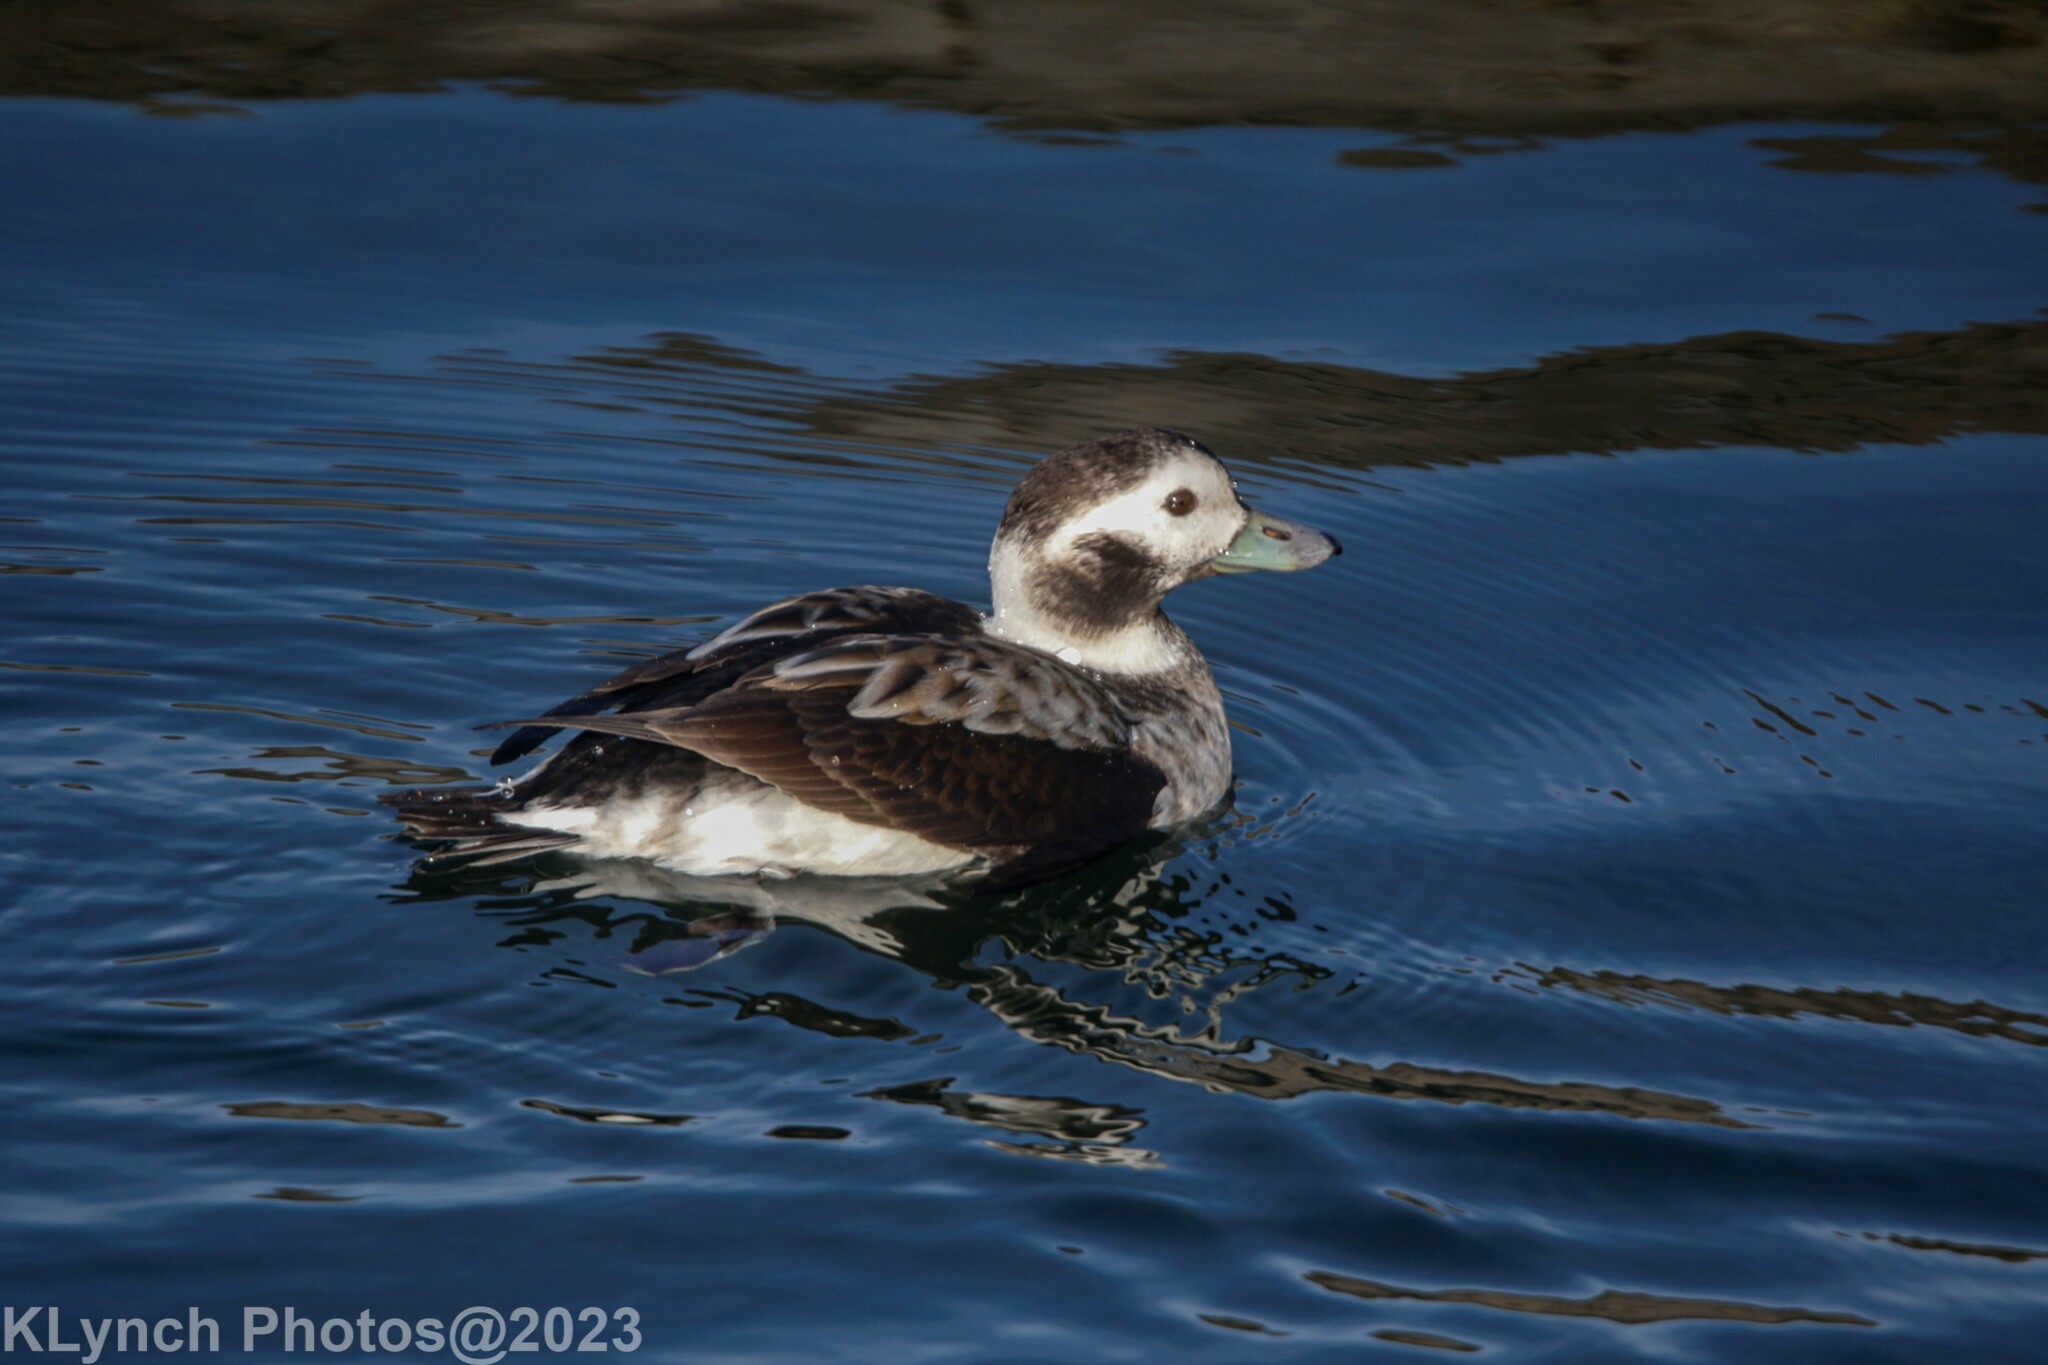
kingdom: Animalia
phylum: Chordata
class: Aves
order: Anseriformes
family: Anatidae
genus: Clangula
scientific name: Clangula hyemalis
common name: Long-tailed duck
